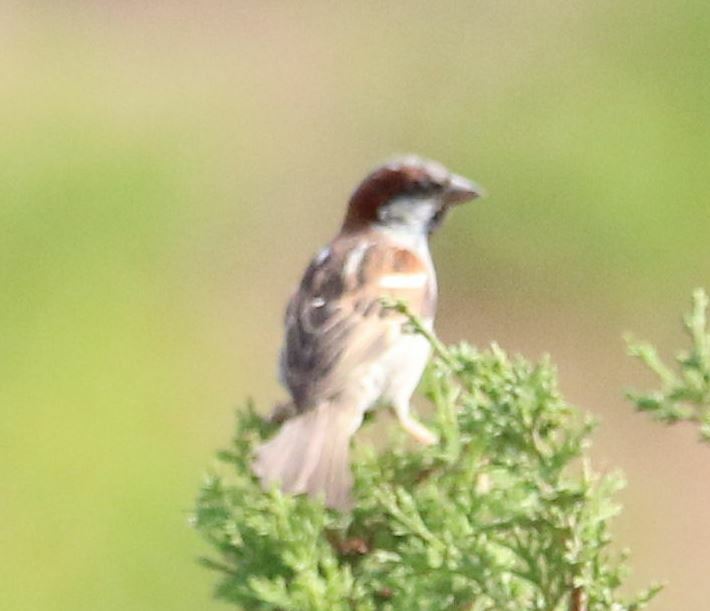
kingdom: Animalia
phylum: Chordata
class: Aves
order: Passeriformes
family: Passeridae
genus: Passer
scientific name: Passer domesticus
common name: House sparrow
